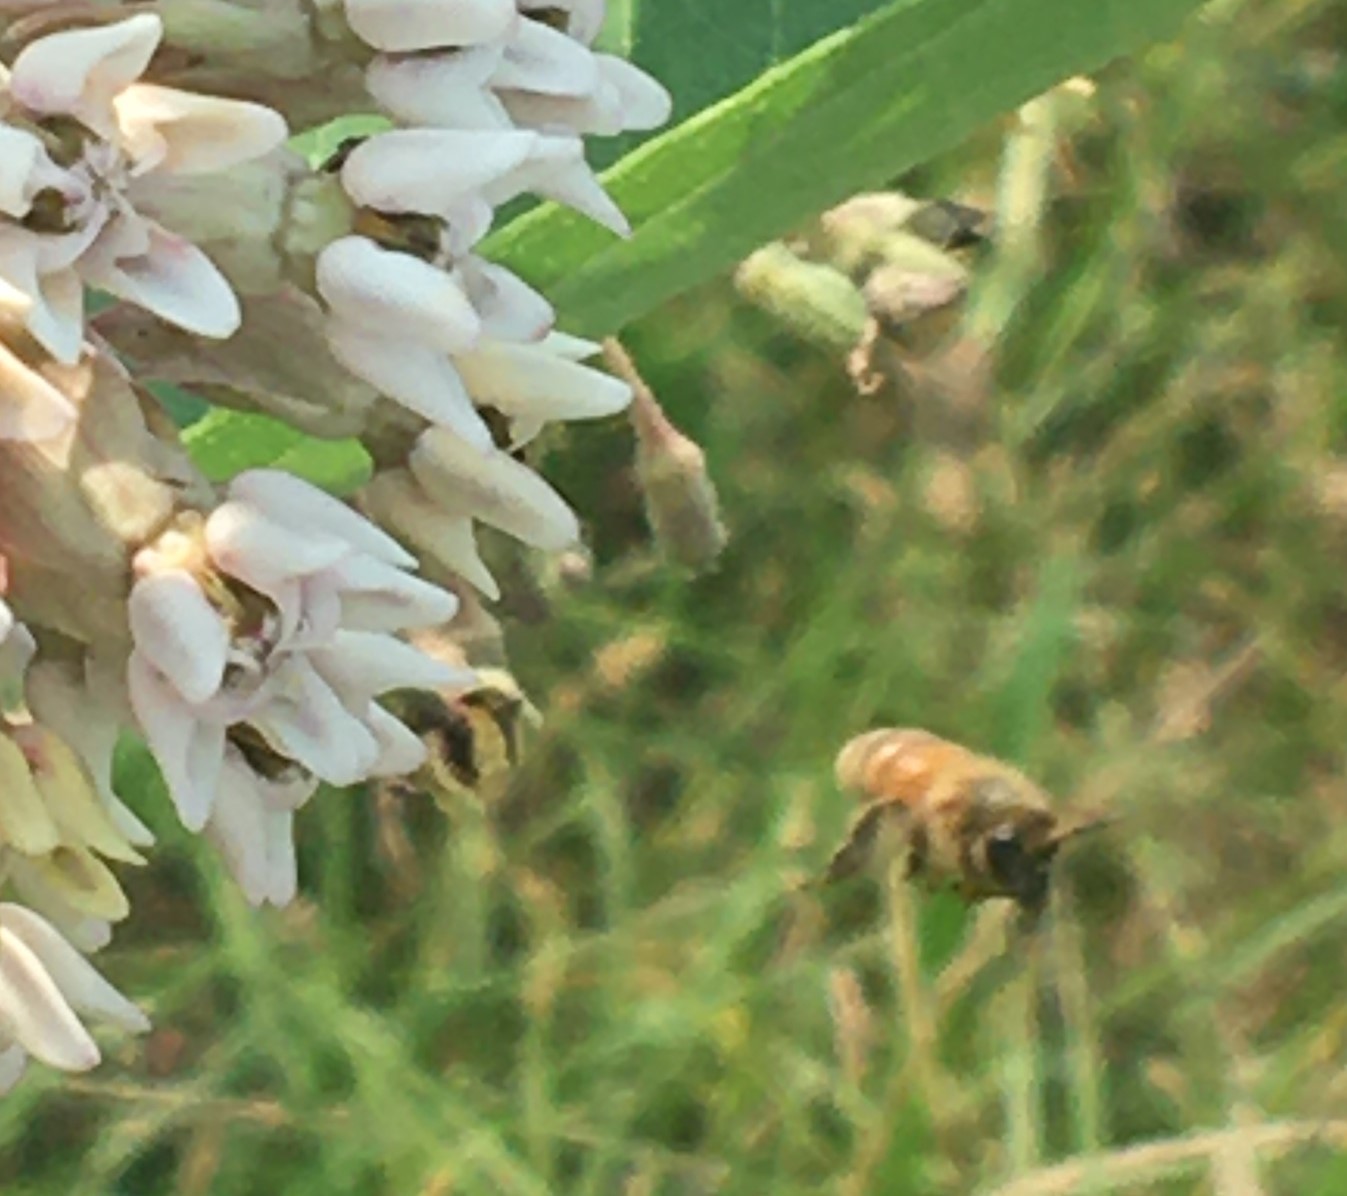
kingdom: Animalia
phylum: Arthropoda
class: Insecta
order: Hymenoptera
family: Apidae
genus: Apis
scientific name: Apis mellifera
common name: Honey bee
